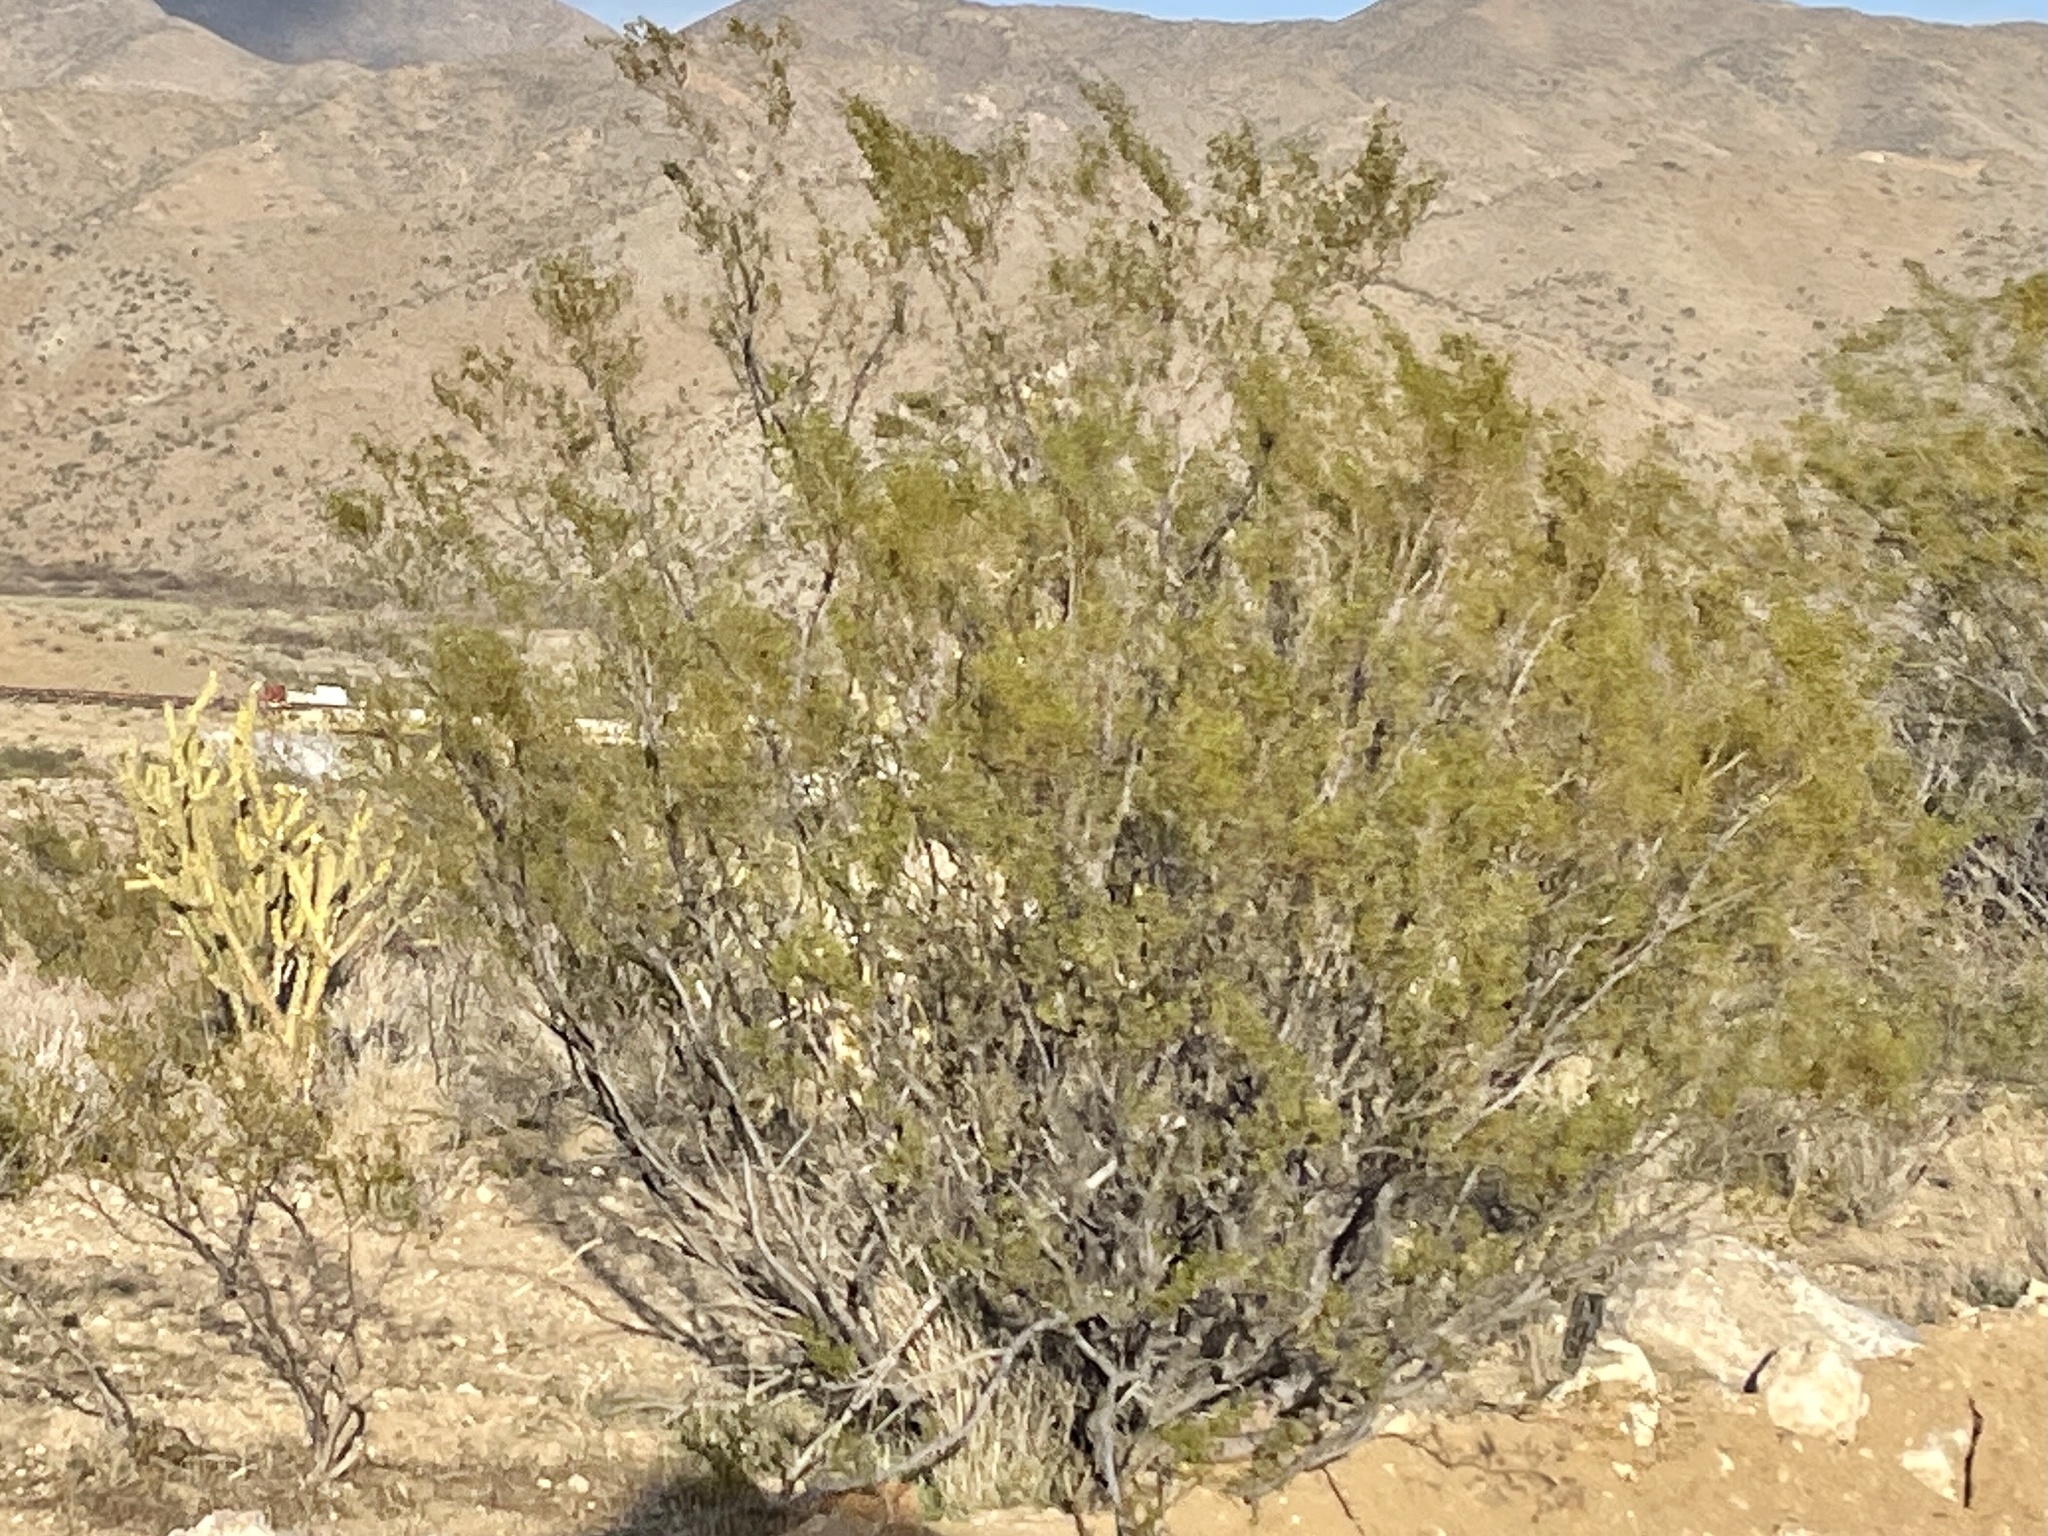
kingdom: Plantae
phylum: Tracheophyta
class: Magnoliopsida
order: Zygophyllales
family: Zygophyllaceae
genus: Larrea
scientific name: Larrea tridentata
